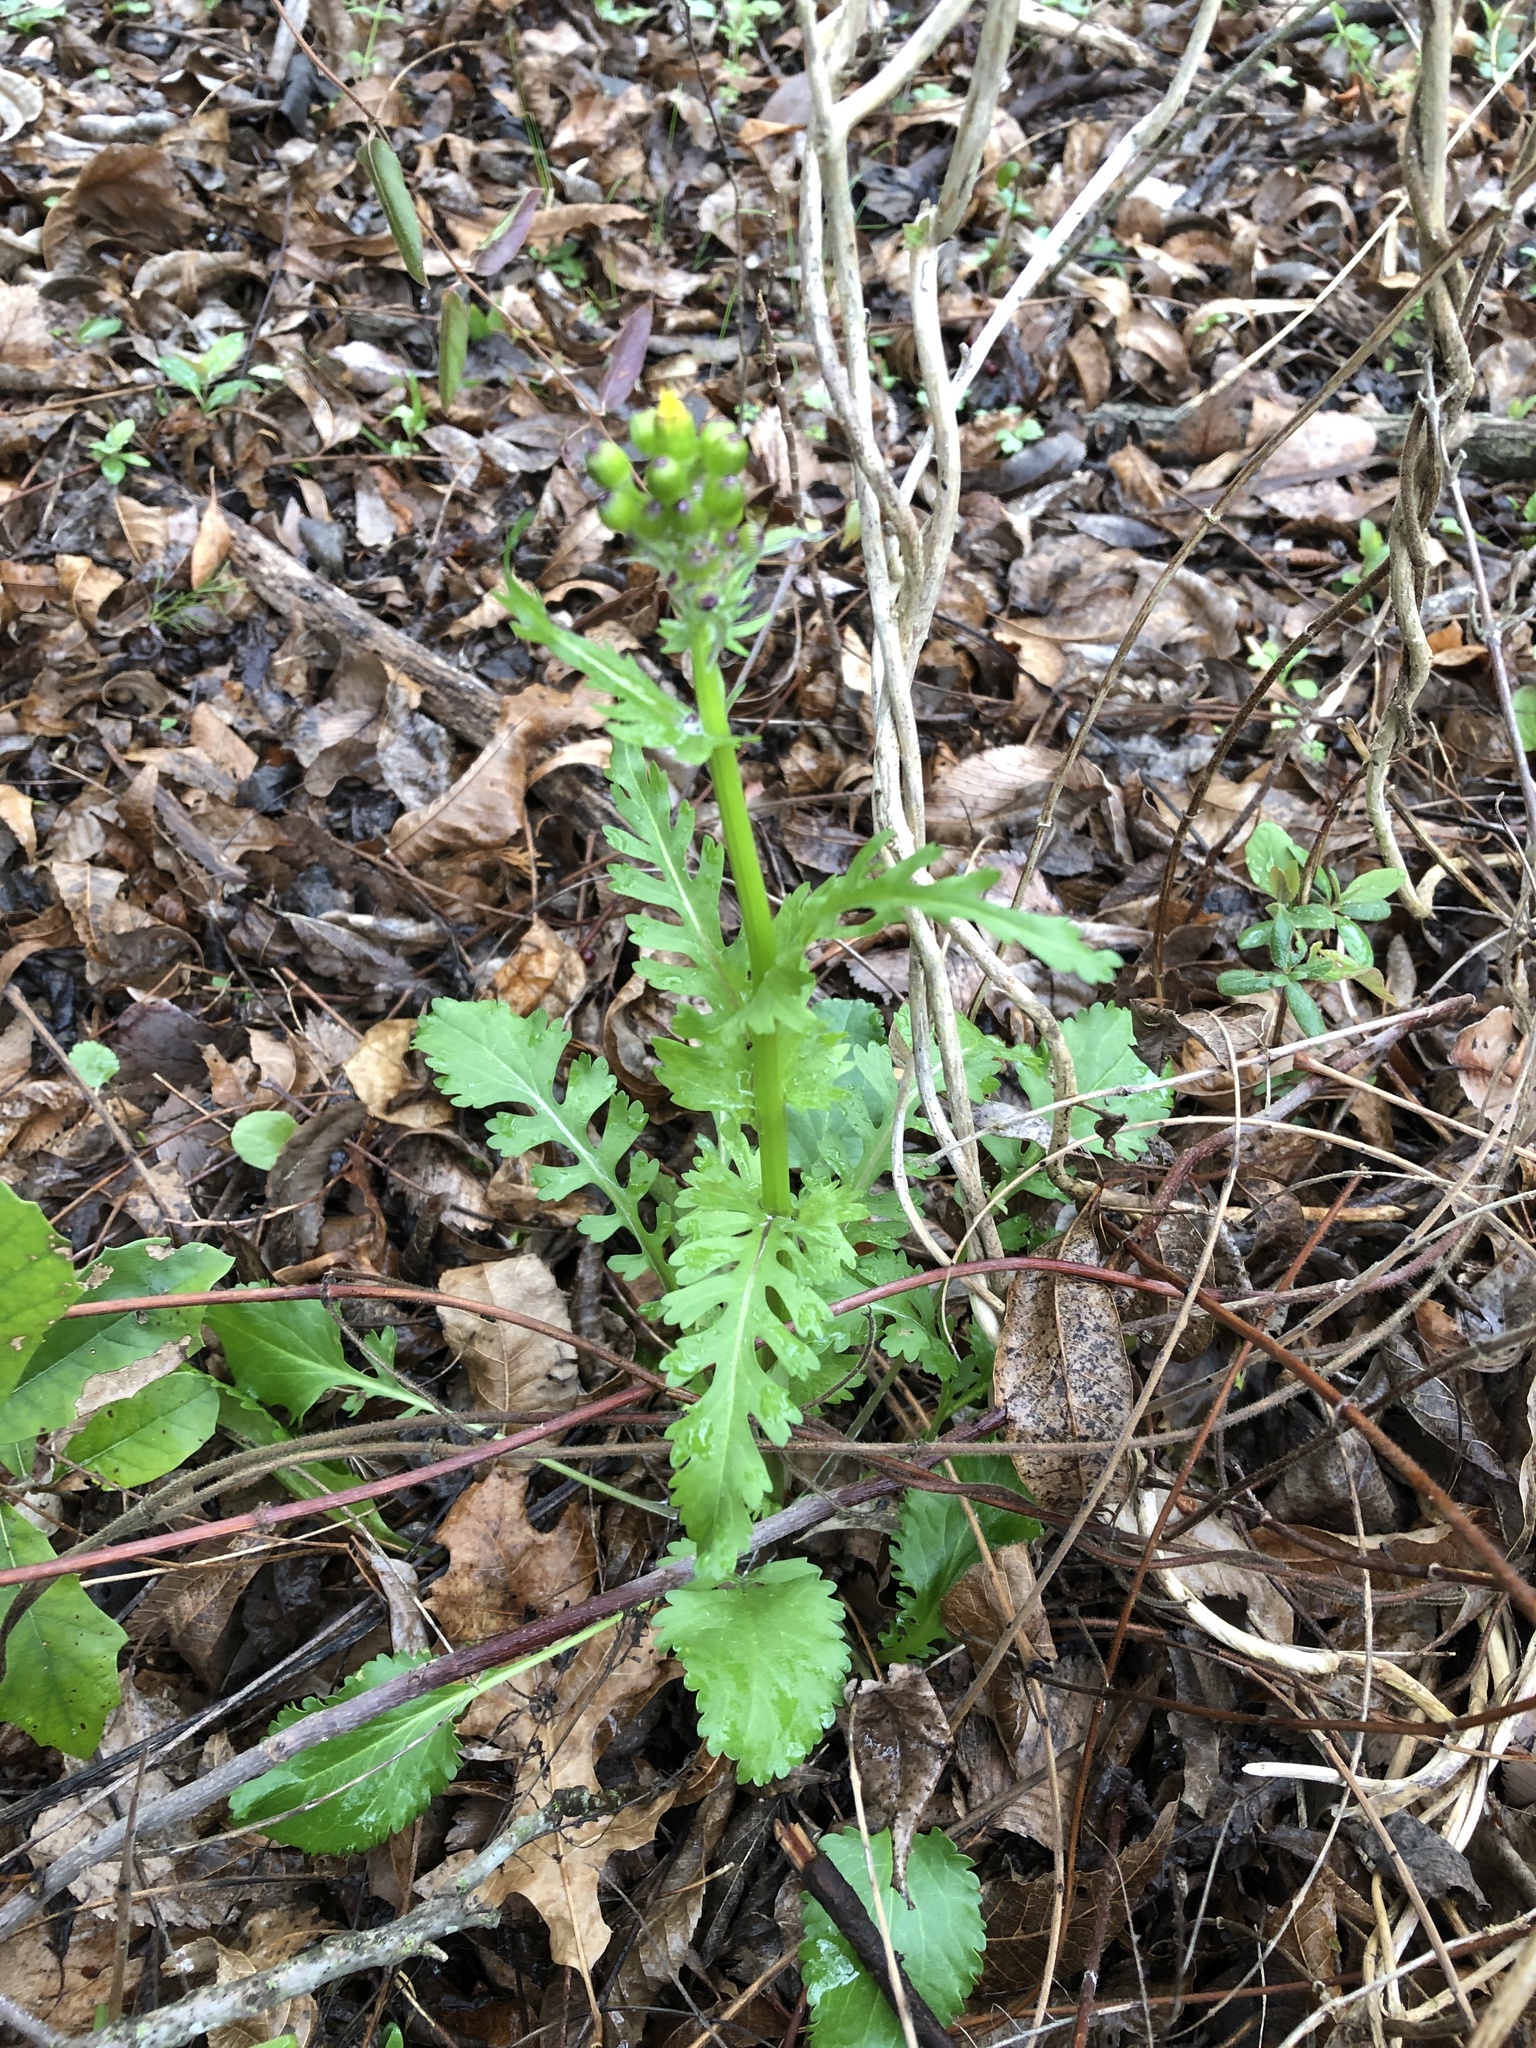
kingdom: Plantae
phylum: Tracheophyta
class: Magnoliopsida
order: Asterales
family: Asteraceae
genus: Packera
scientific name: Packera obovata
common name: Round-leaf ragwort
